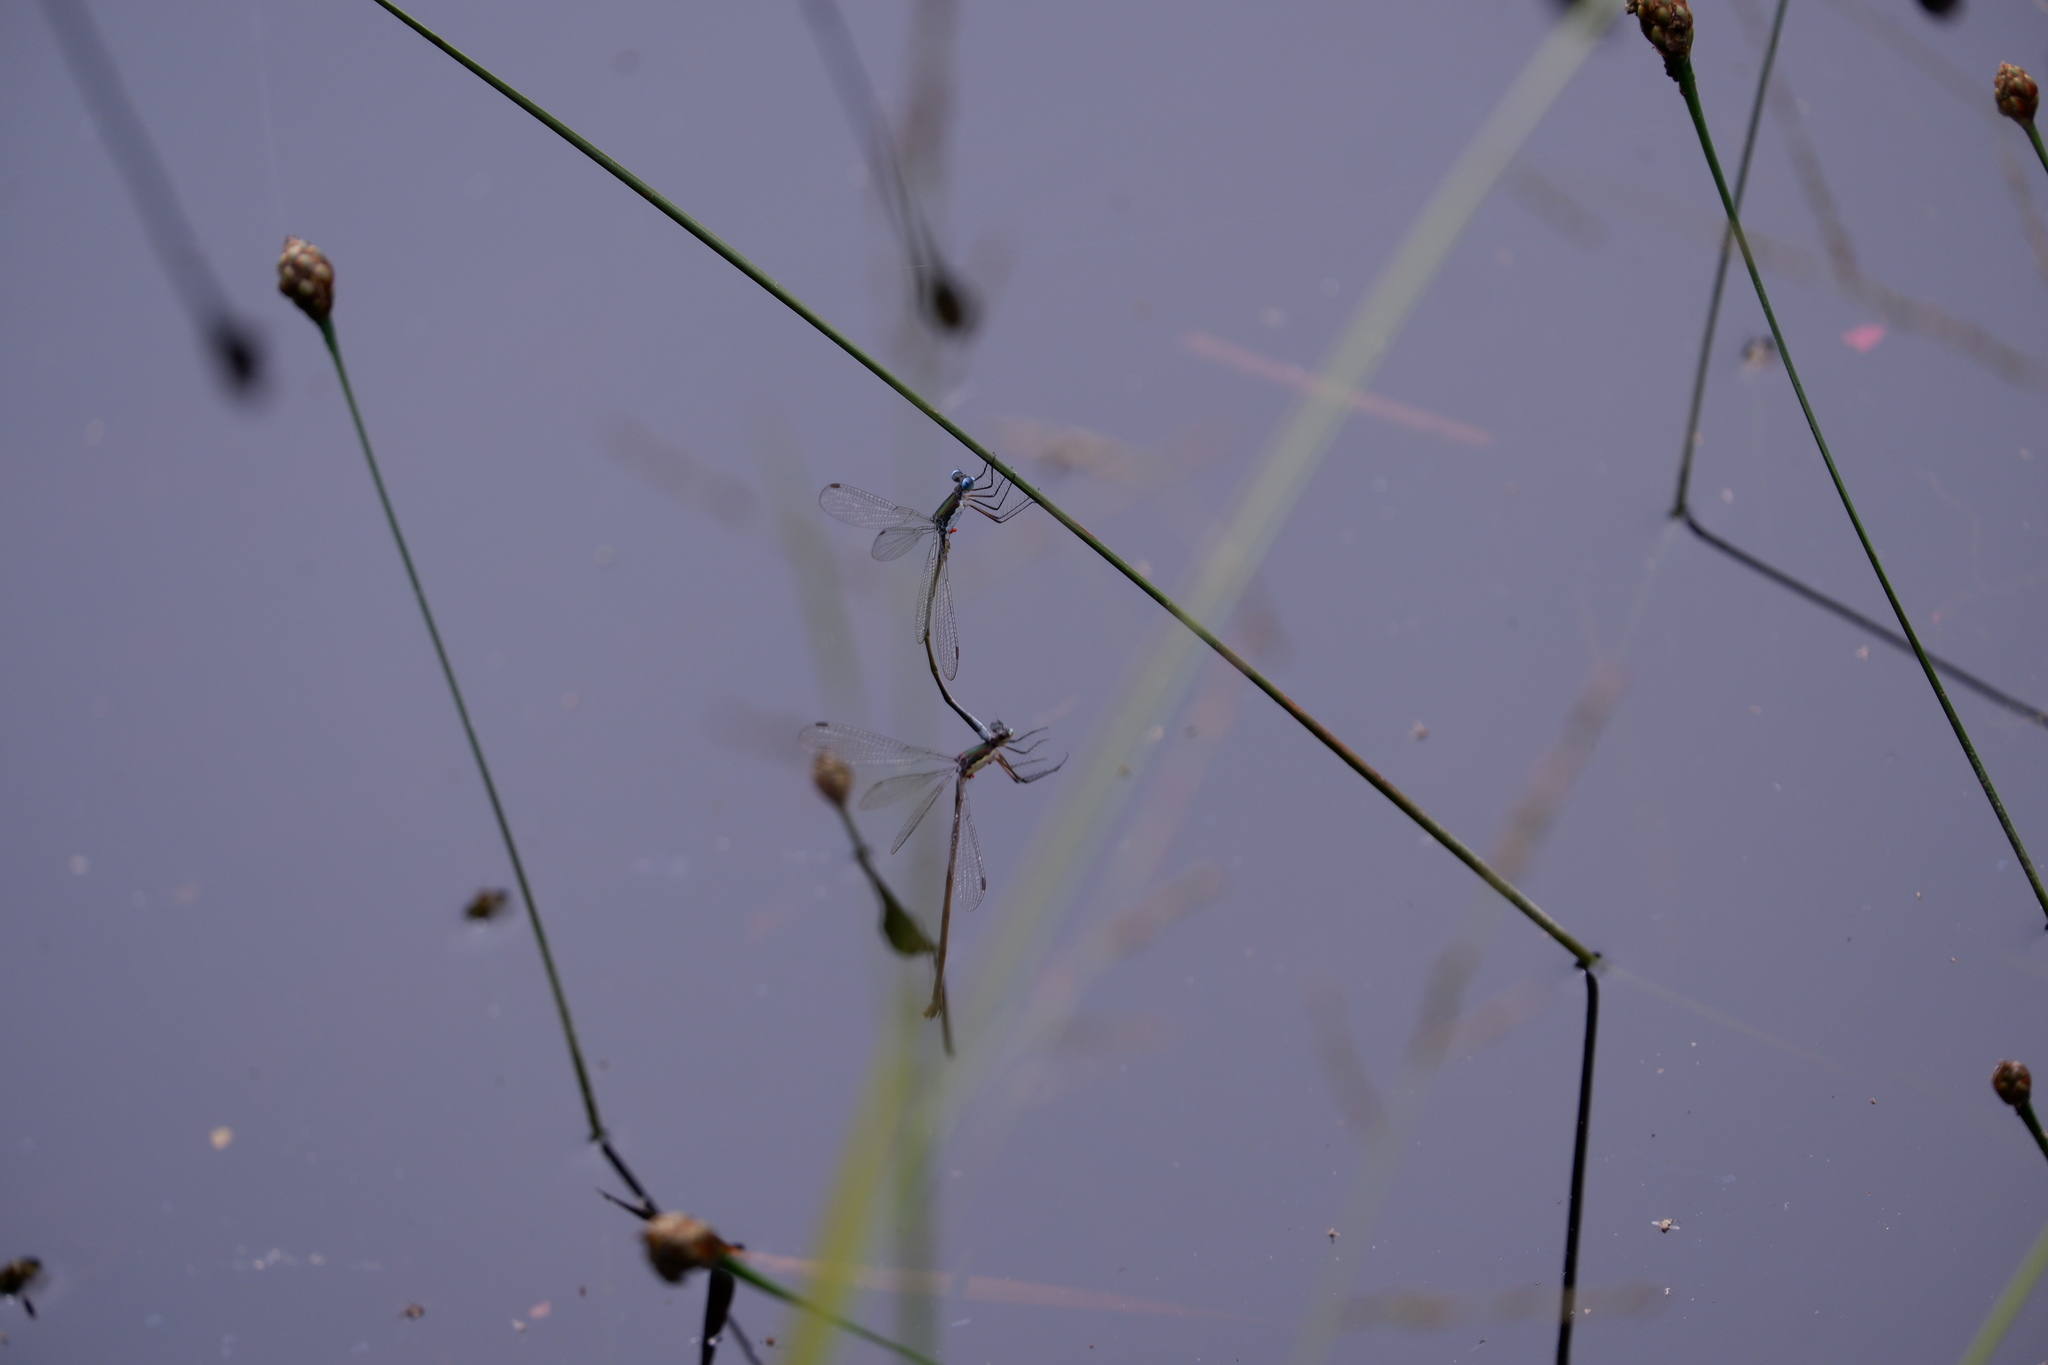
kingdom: Animalia
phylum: Arthropoda
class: Insecta
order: Odonata
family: Lestidae
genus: Lestes
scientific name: Lestes vigilax
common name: Swamp spreadwing
